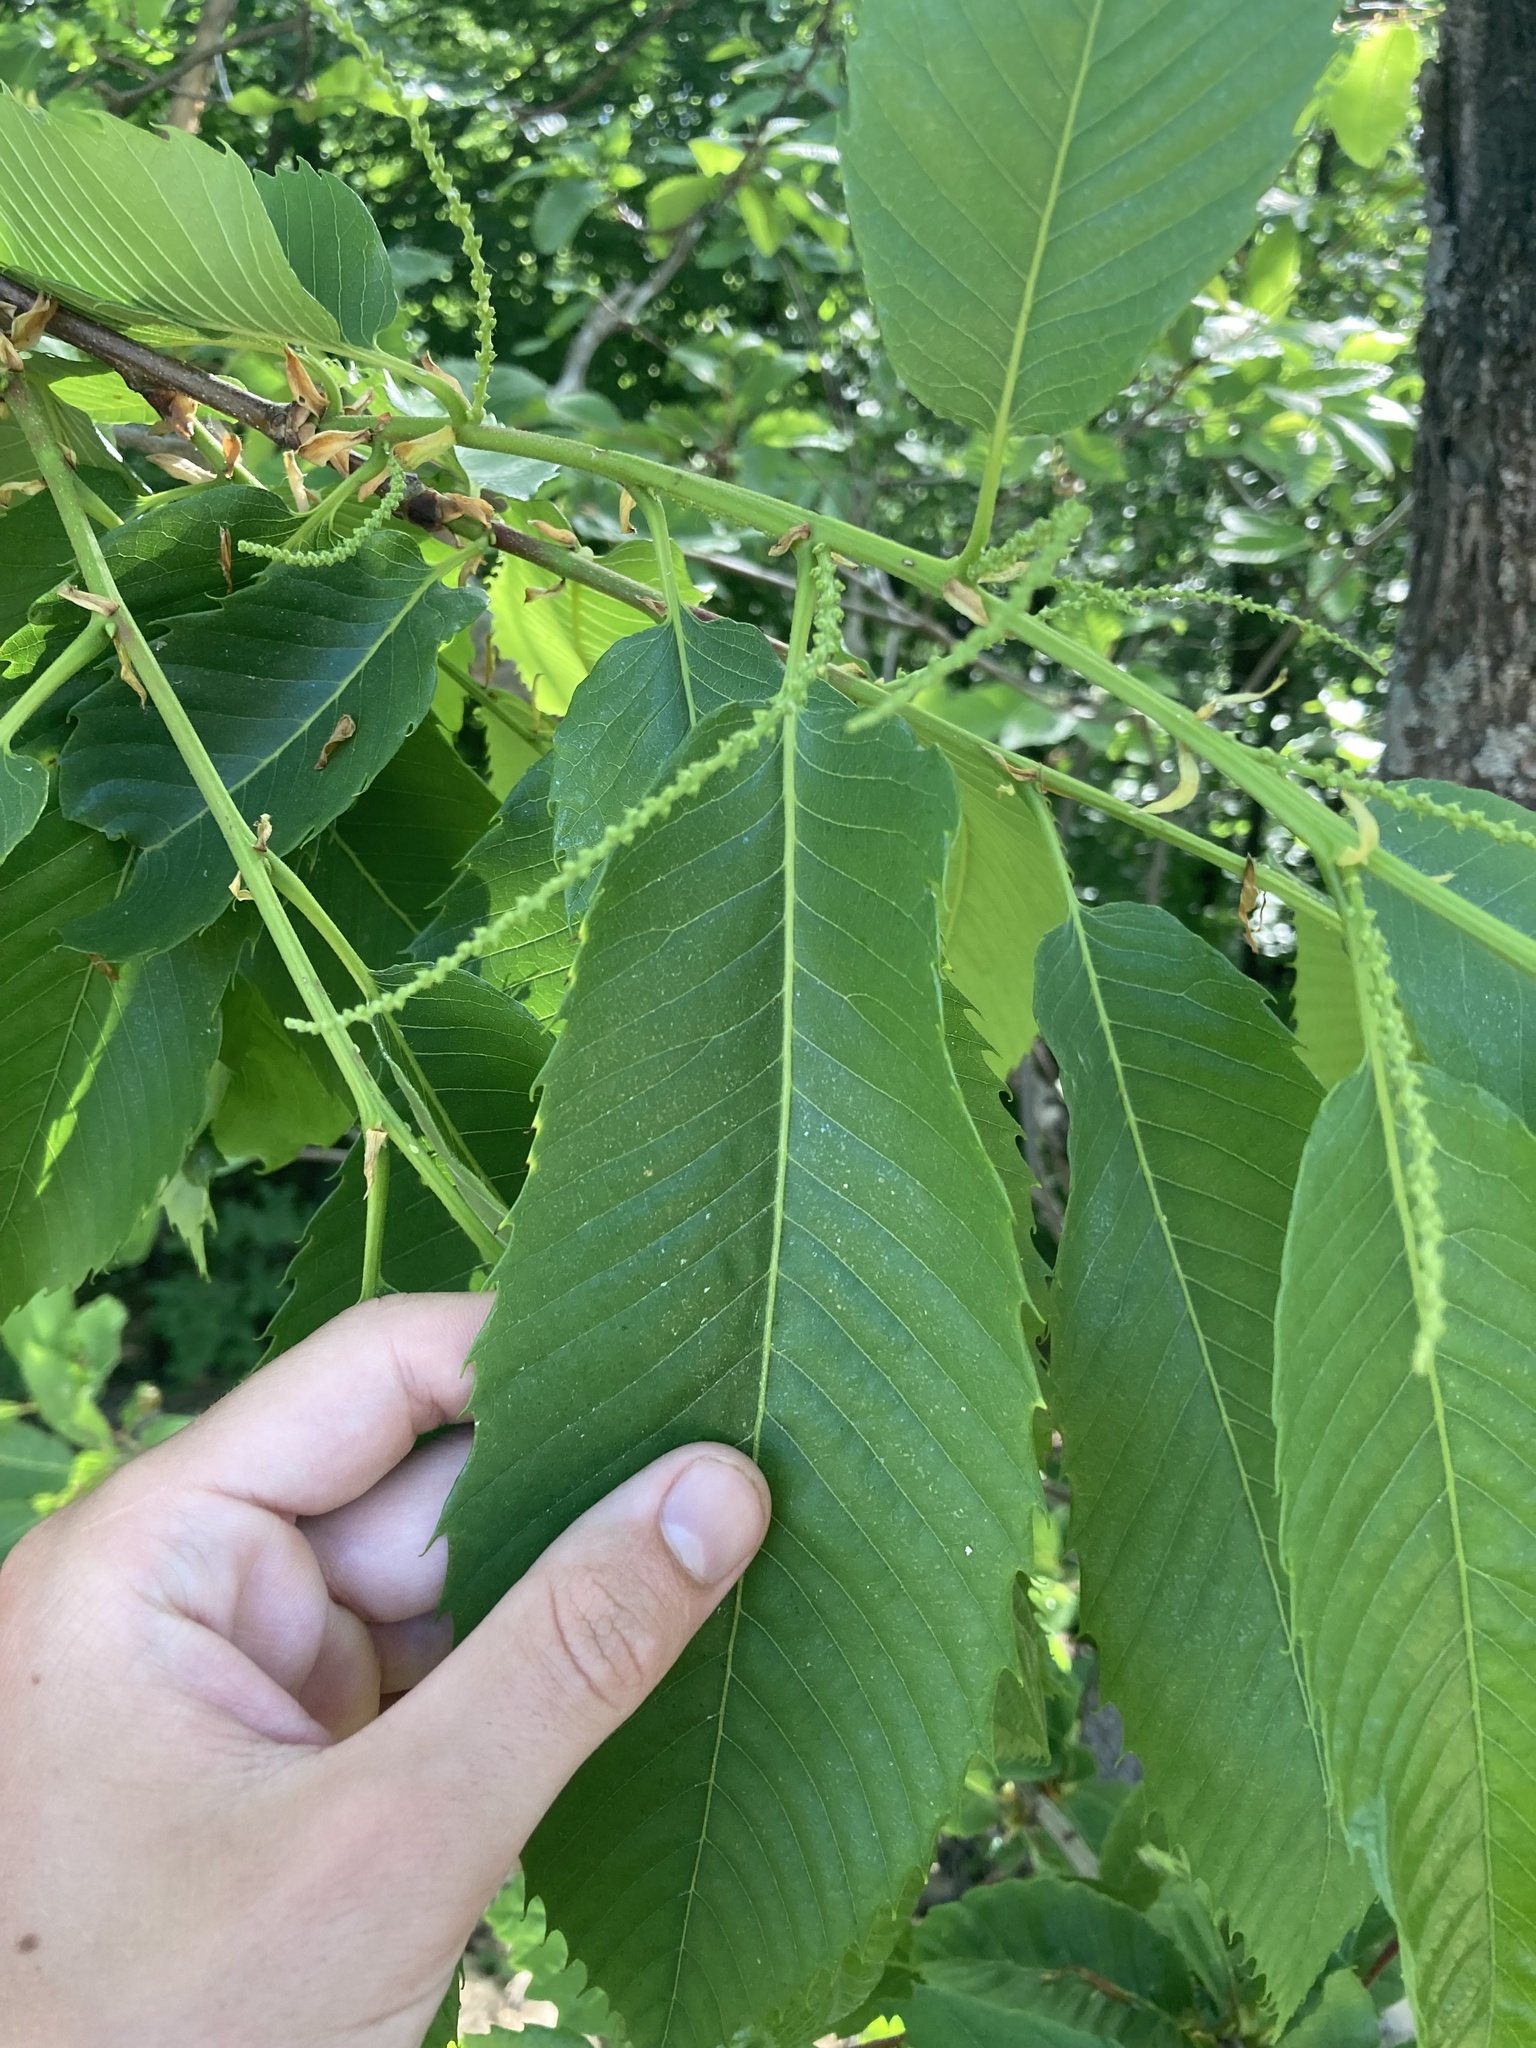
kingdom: Plantae
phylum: Tracheophyta
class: Magnoliopsida
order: Fagales
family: Fagaceae
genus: Castanea
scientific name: Castanea sativa
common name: Sweet chestnut
